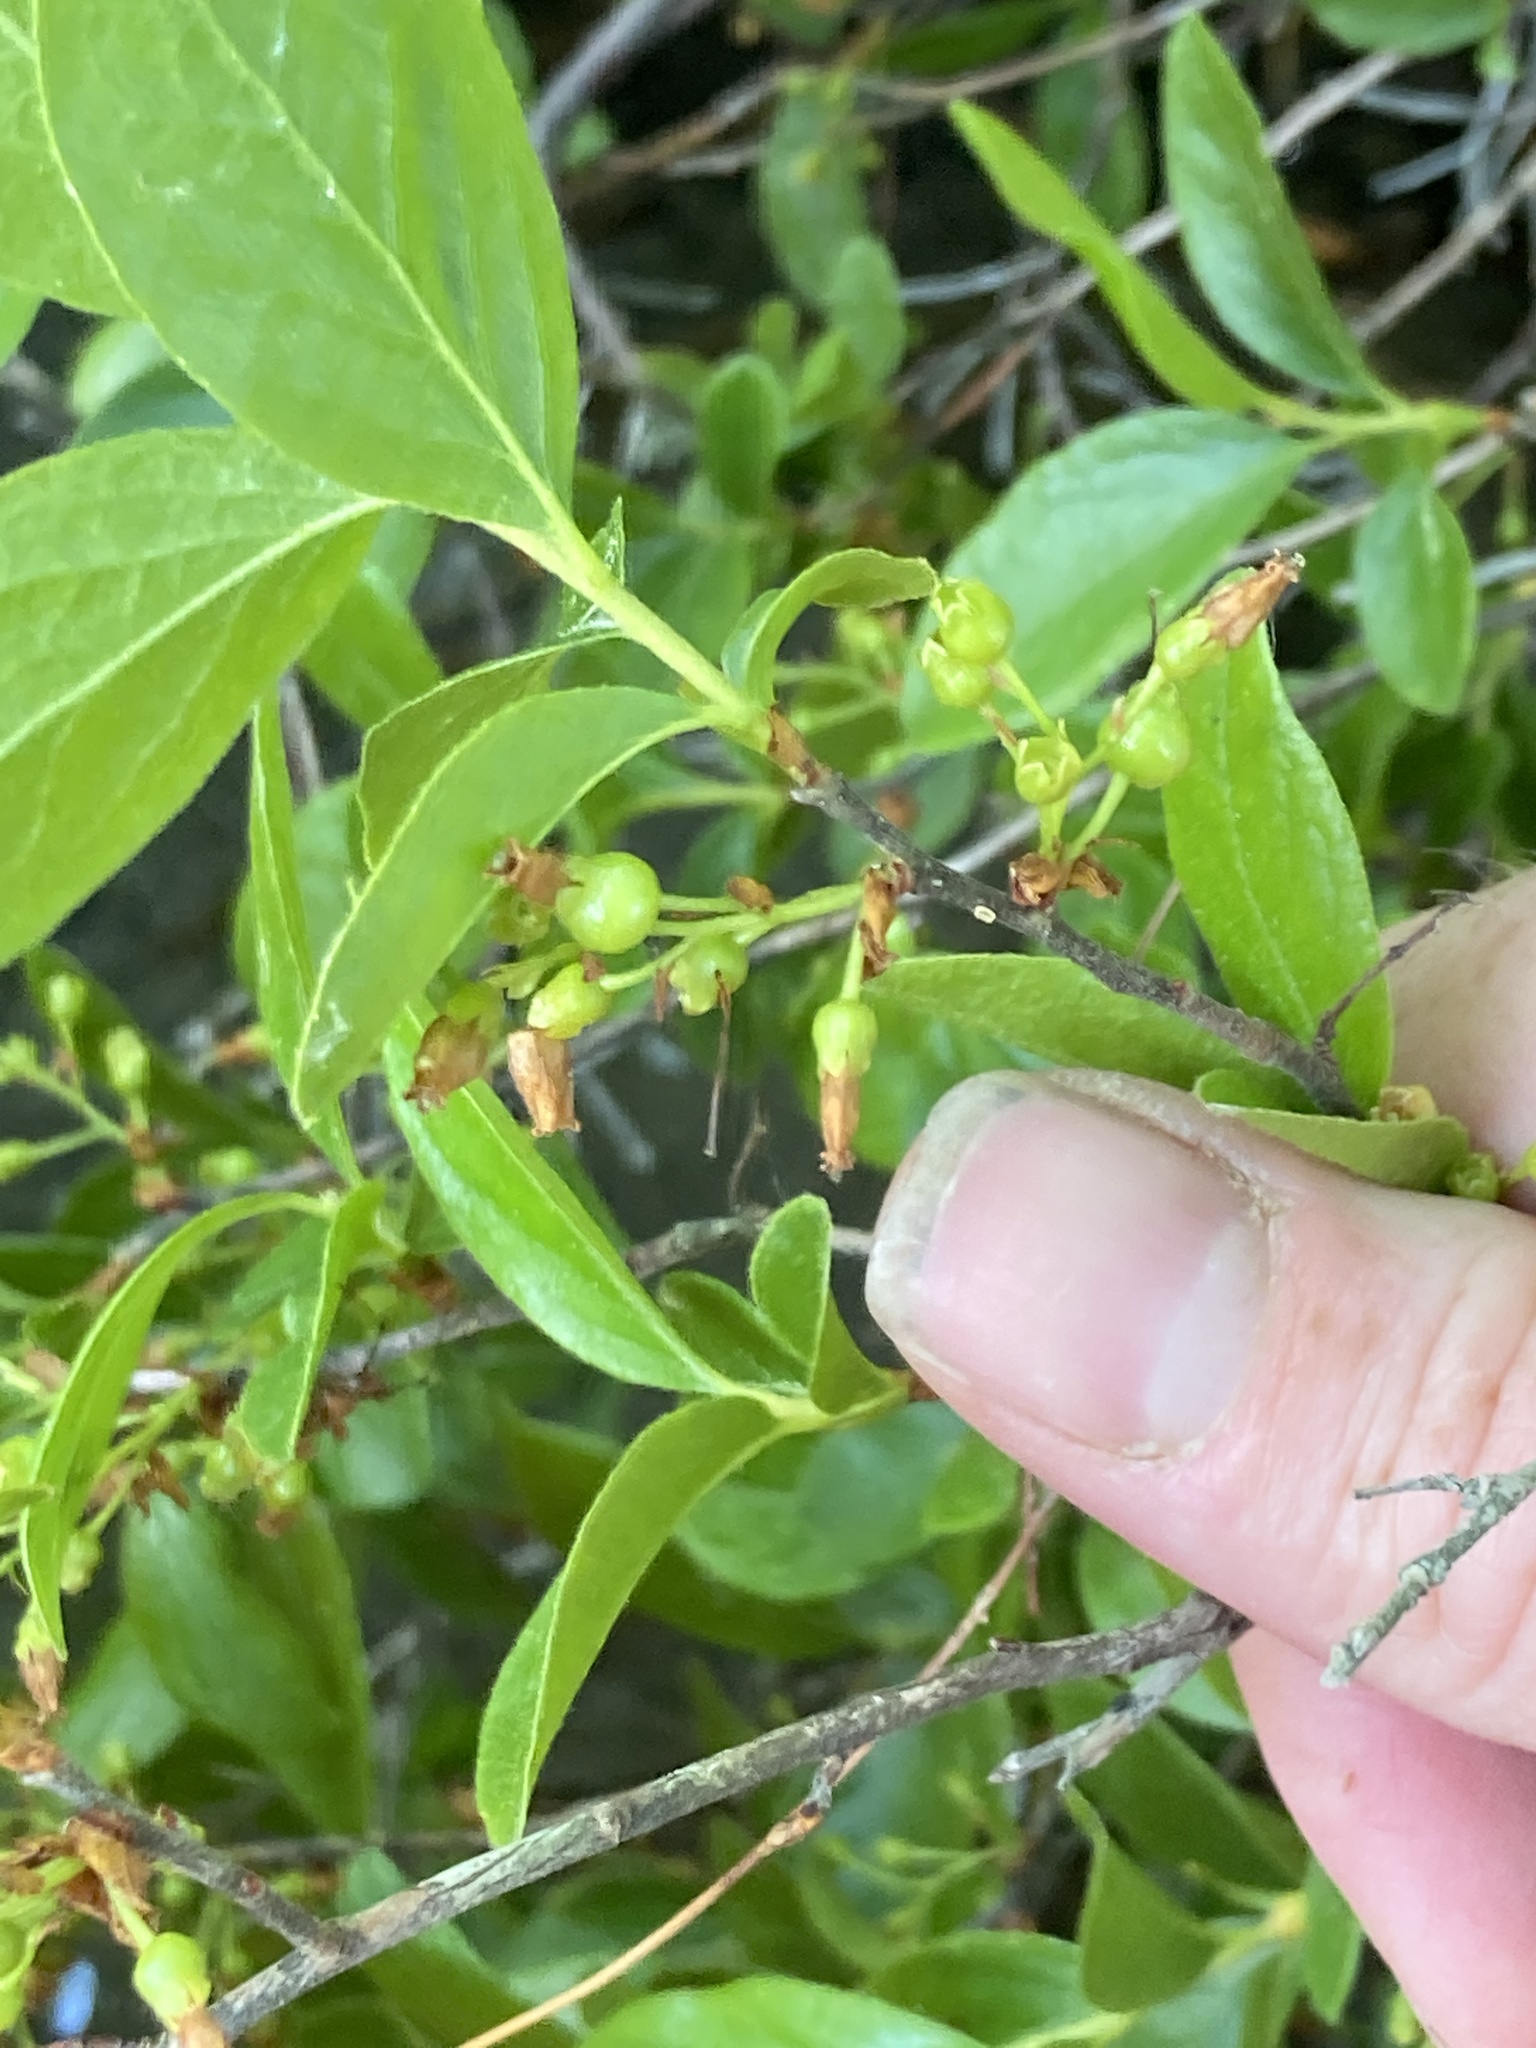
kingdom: Plantae
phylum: Tracheophyta
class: Magnoliopsida
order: Ericales
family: Ericaceae
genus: Gaylussacia
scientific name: Gaylussacia baccata
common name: Black huckleberry
